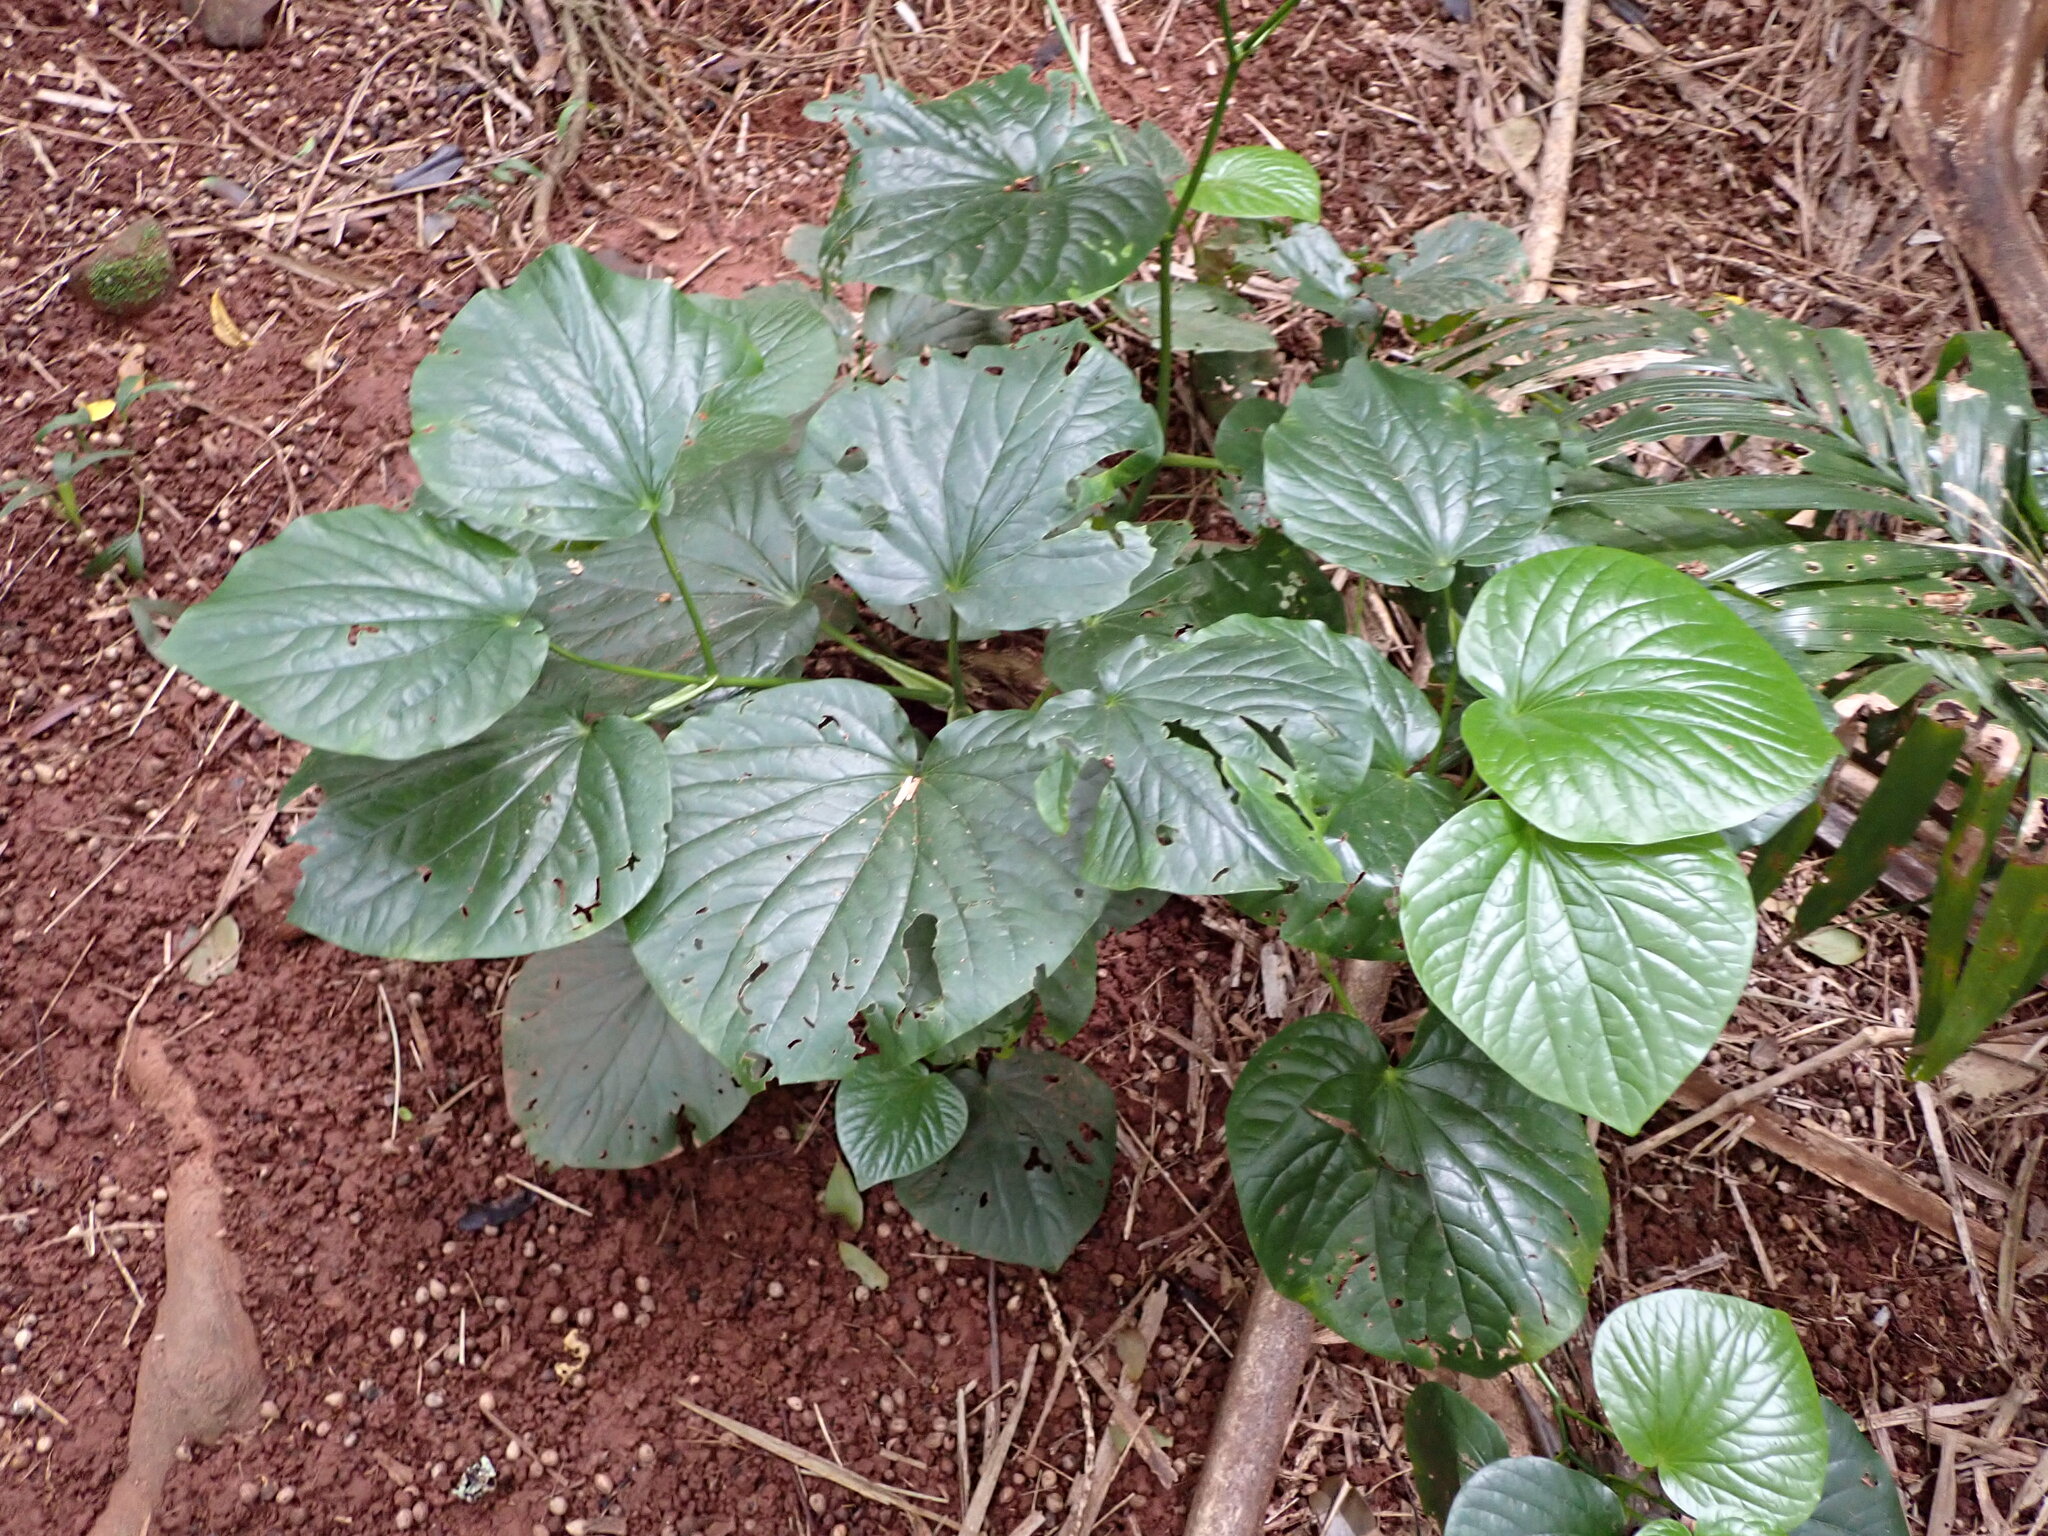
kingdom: Plantae
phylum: Tracheophyta
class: Magnoliopsida
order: Piperales
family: Piperaceae
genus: Macropiper
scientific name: Macropiper excelsum
